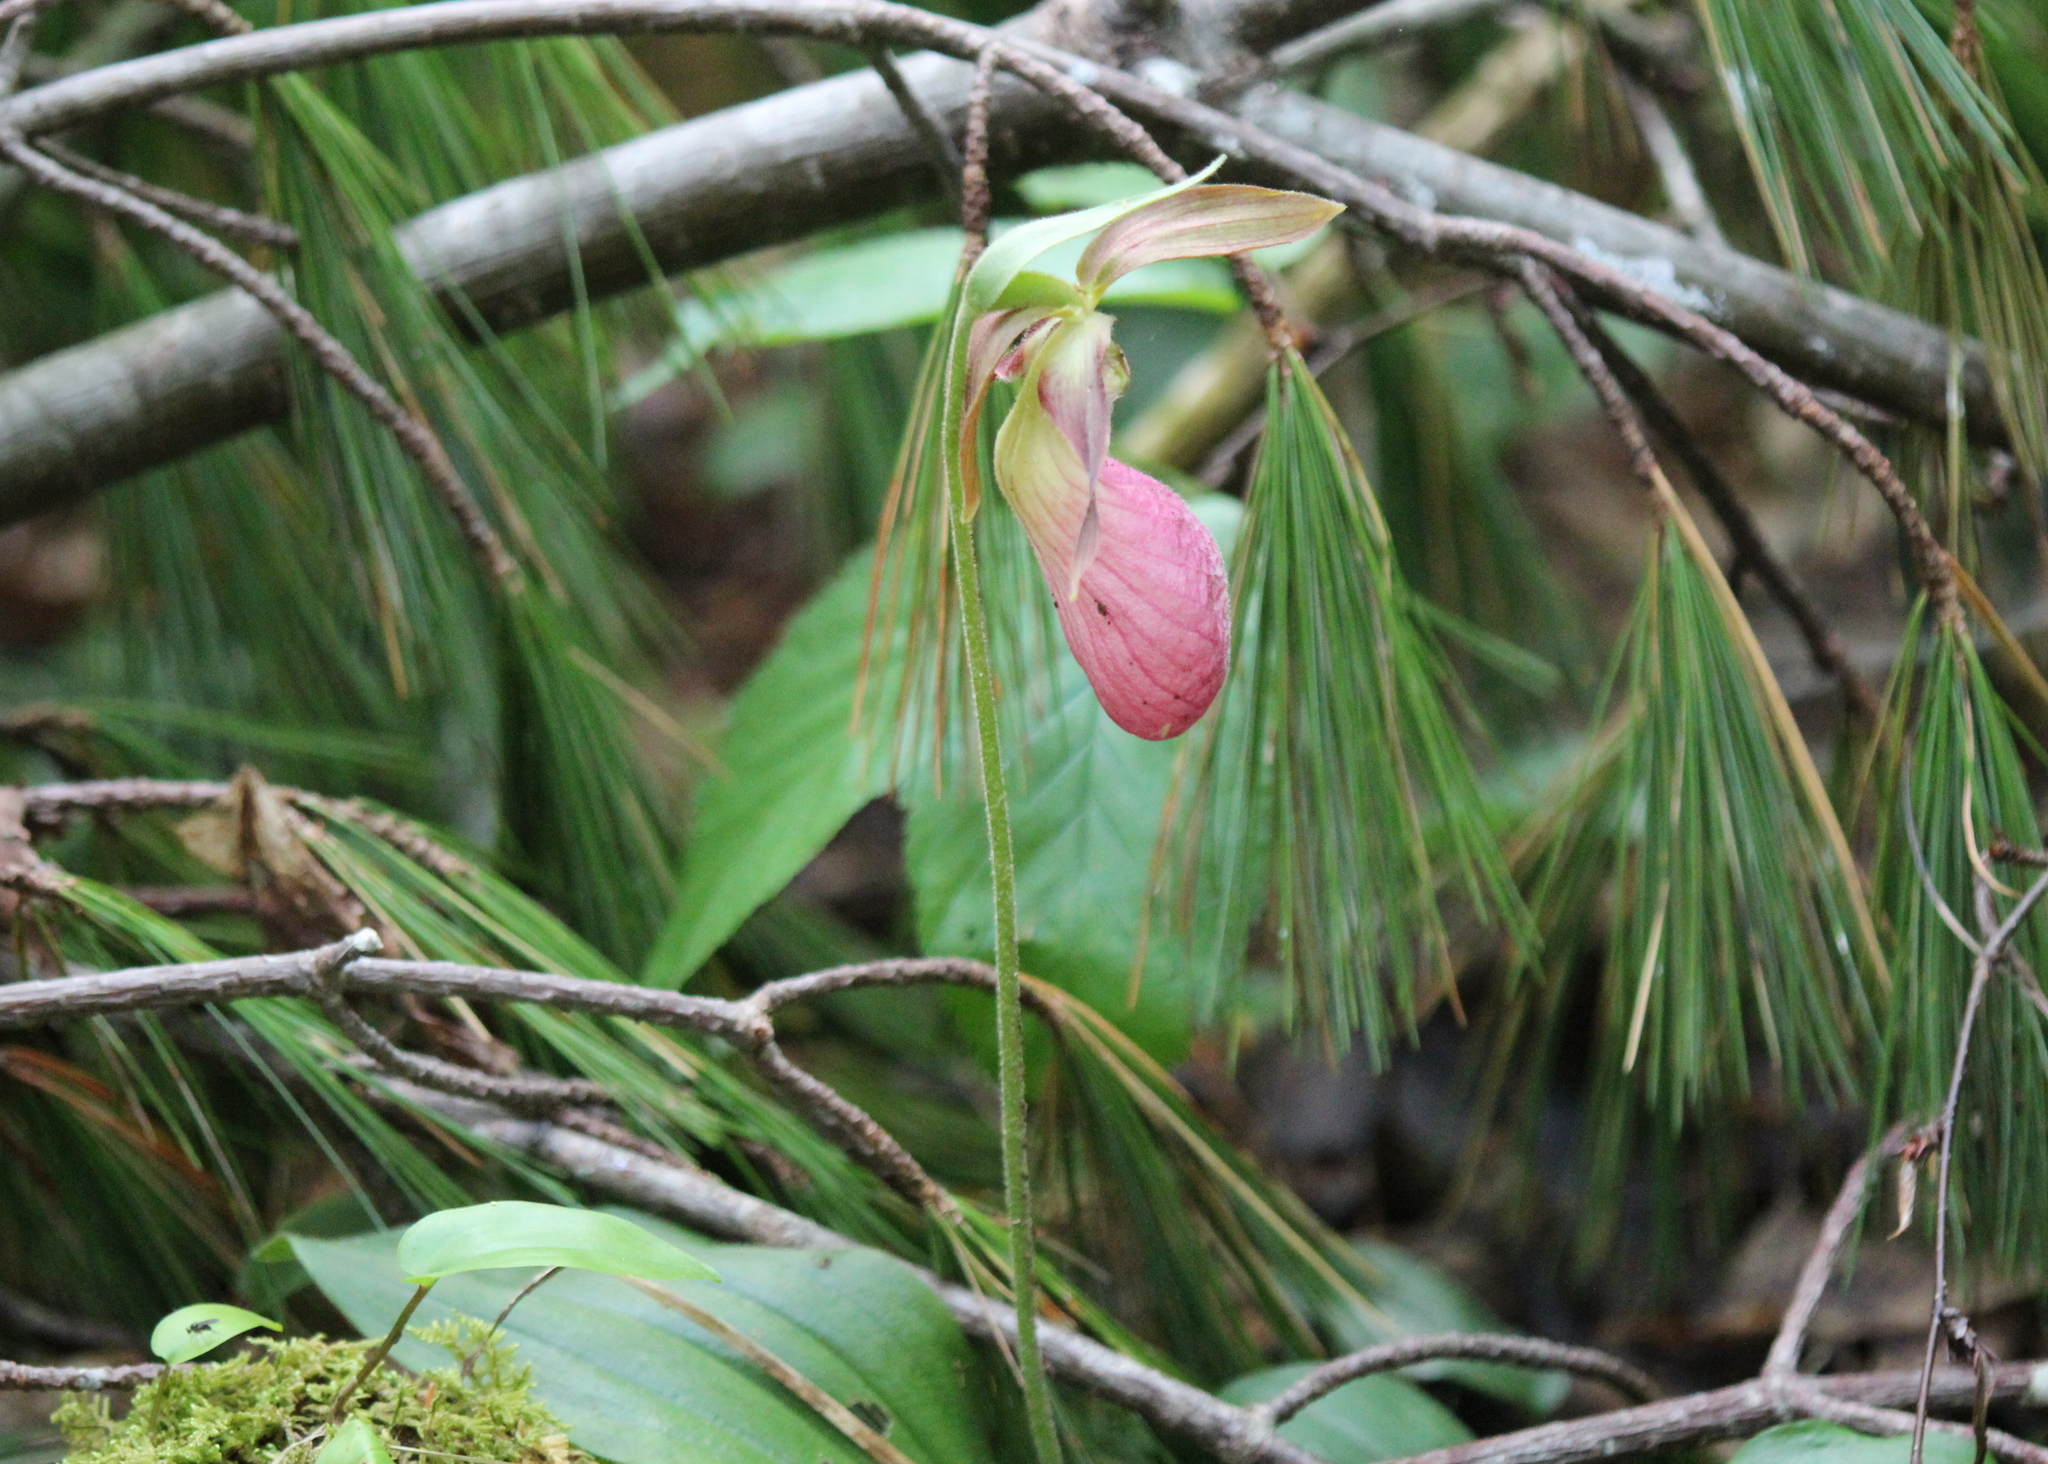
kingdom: Plantae
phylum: Tracheophyta
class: Liliopsida
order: Asparagales
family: Orchidaceae
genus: Cypripedium
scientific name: Cypripedium acaule
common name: Pink lady's-slipper
